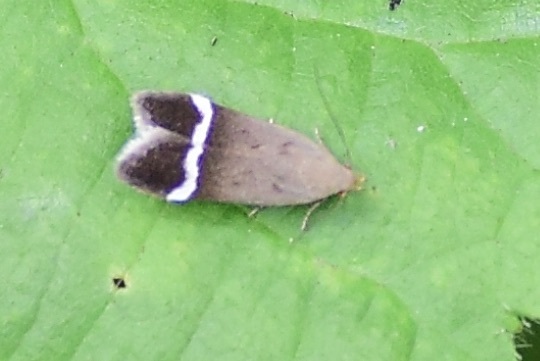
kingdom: Animalia
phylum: Arthropoda
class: Insecta
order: Lepidoptera
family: Gelechiidae
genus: Anacampsis
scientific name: Anacampsis agrimoniella
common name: Agrimony anacampsis moth
